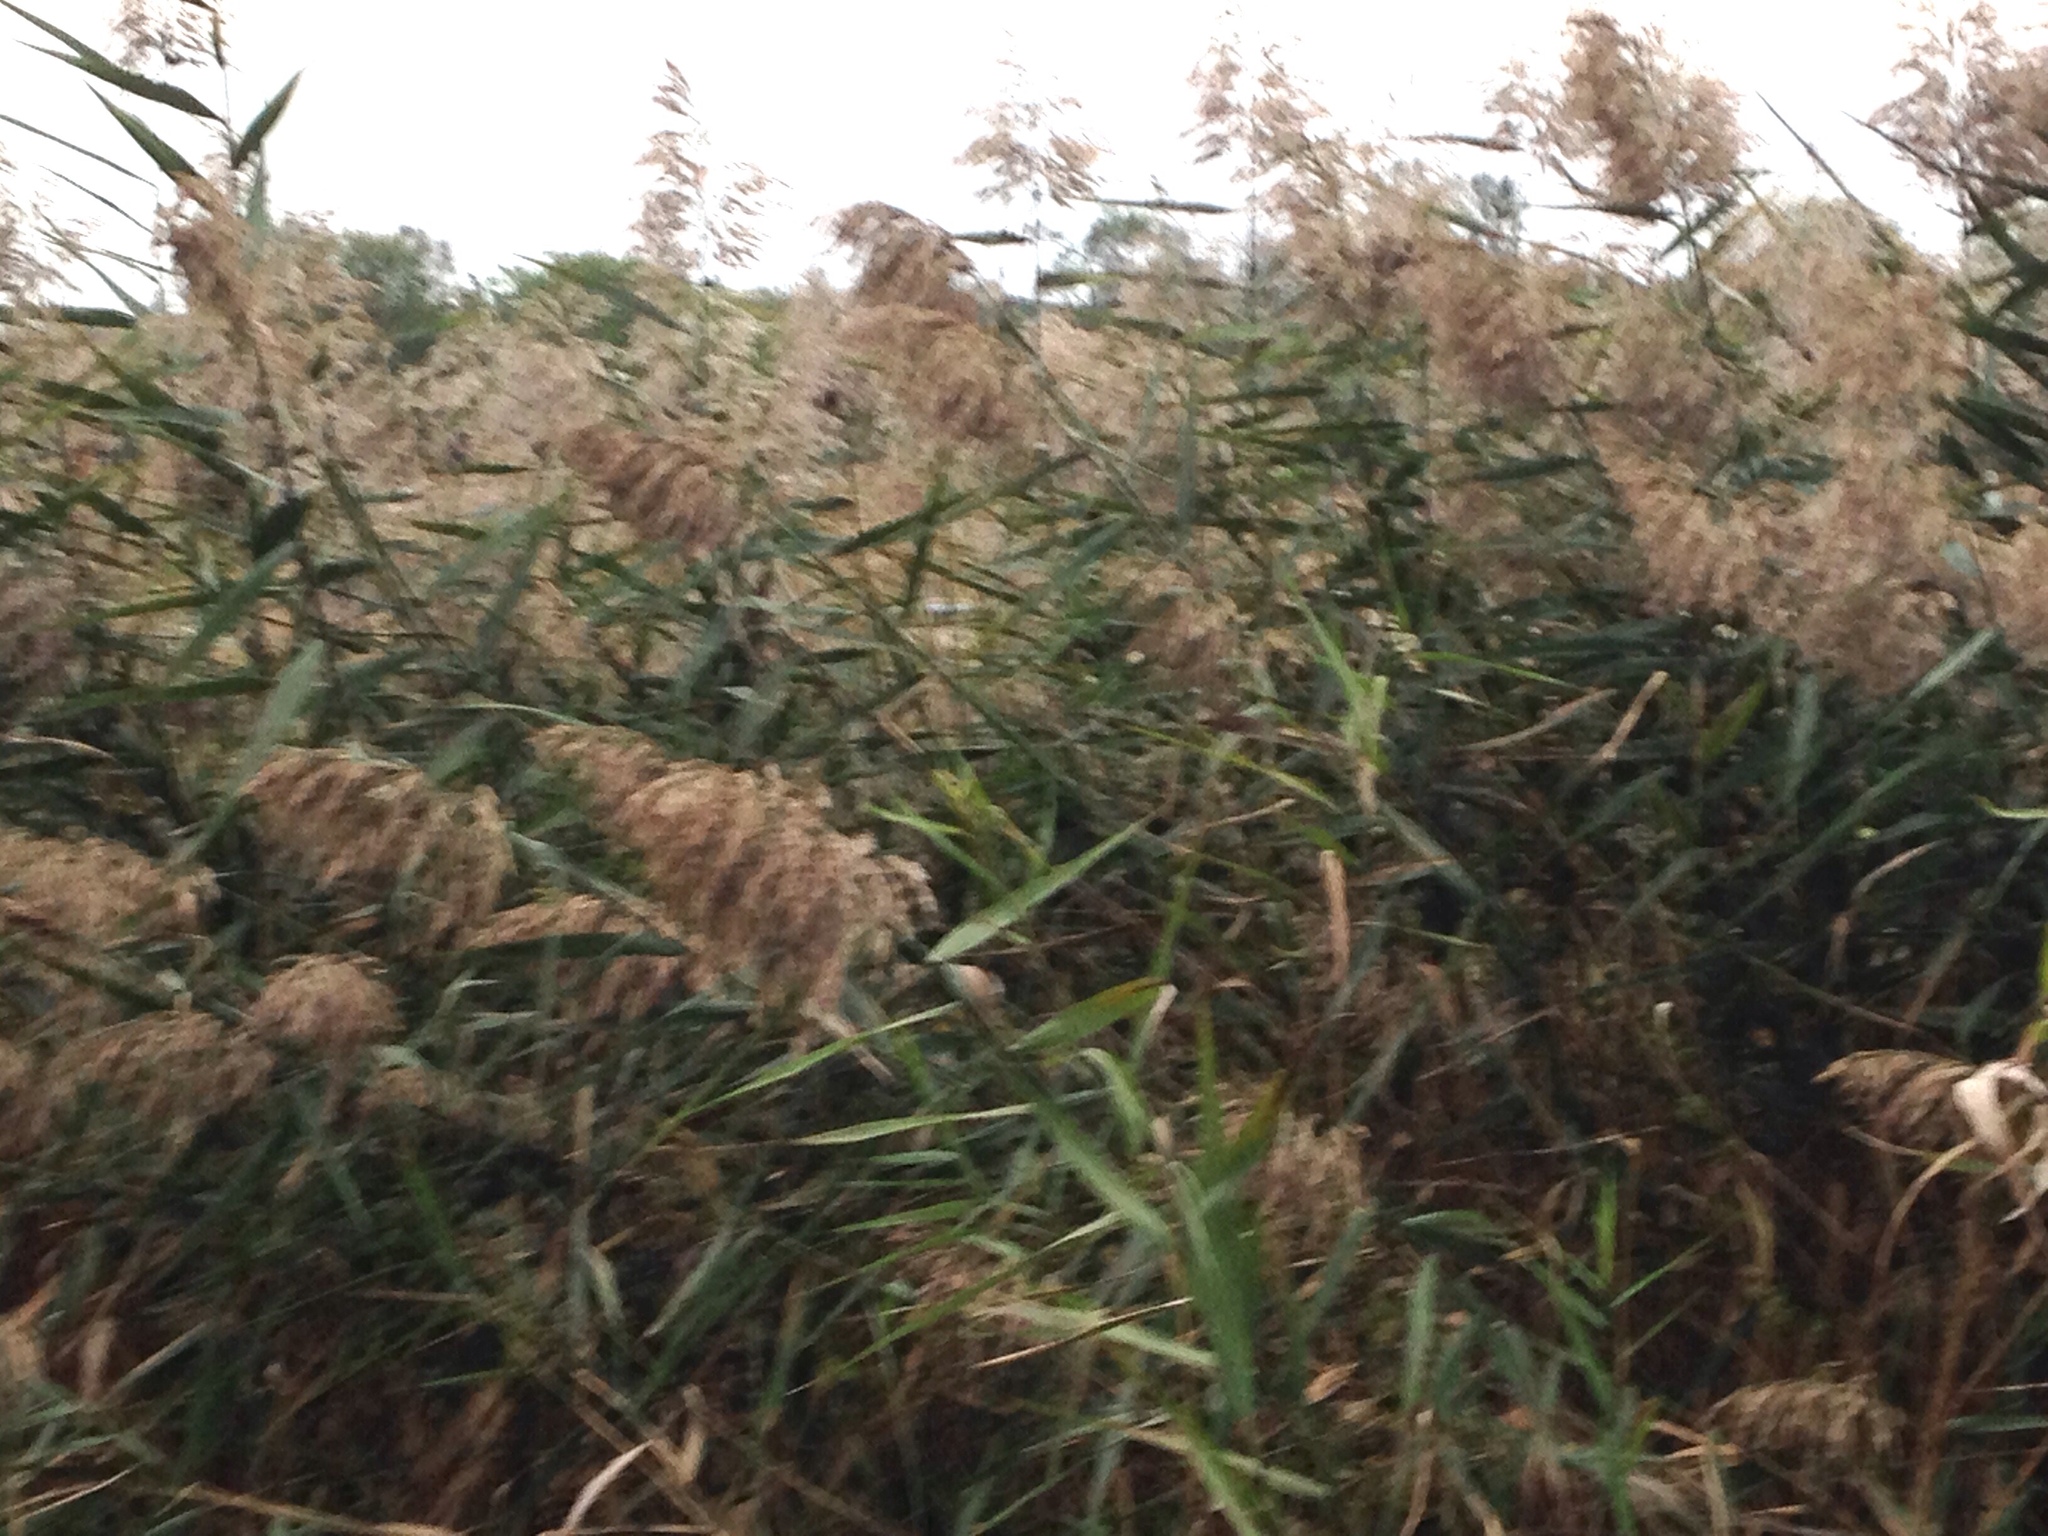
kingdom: Plantae
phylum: Tracheophyta
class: Liliopsida
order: Poales
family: Poaceae
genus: Phragmites
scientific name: Phragmites australis
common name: Common reed
